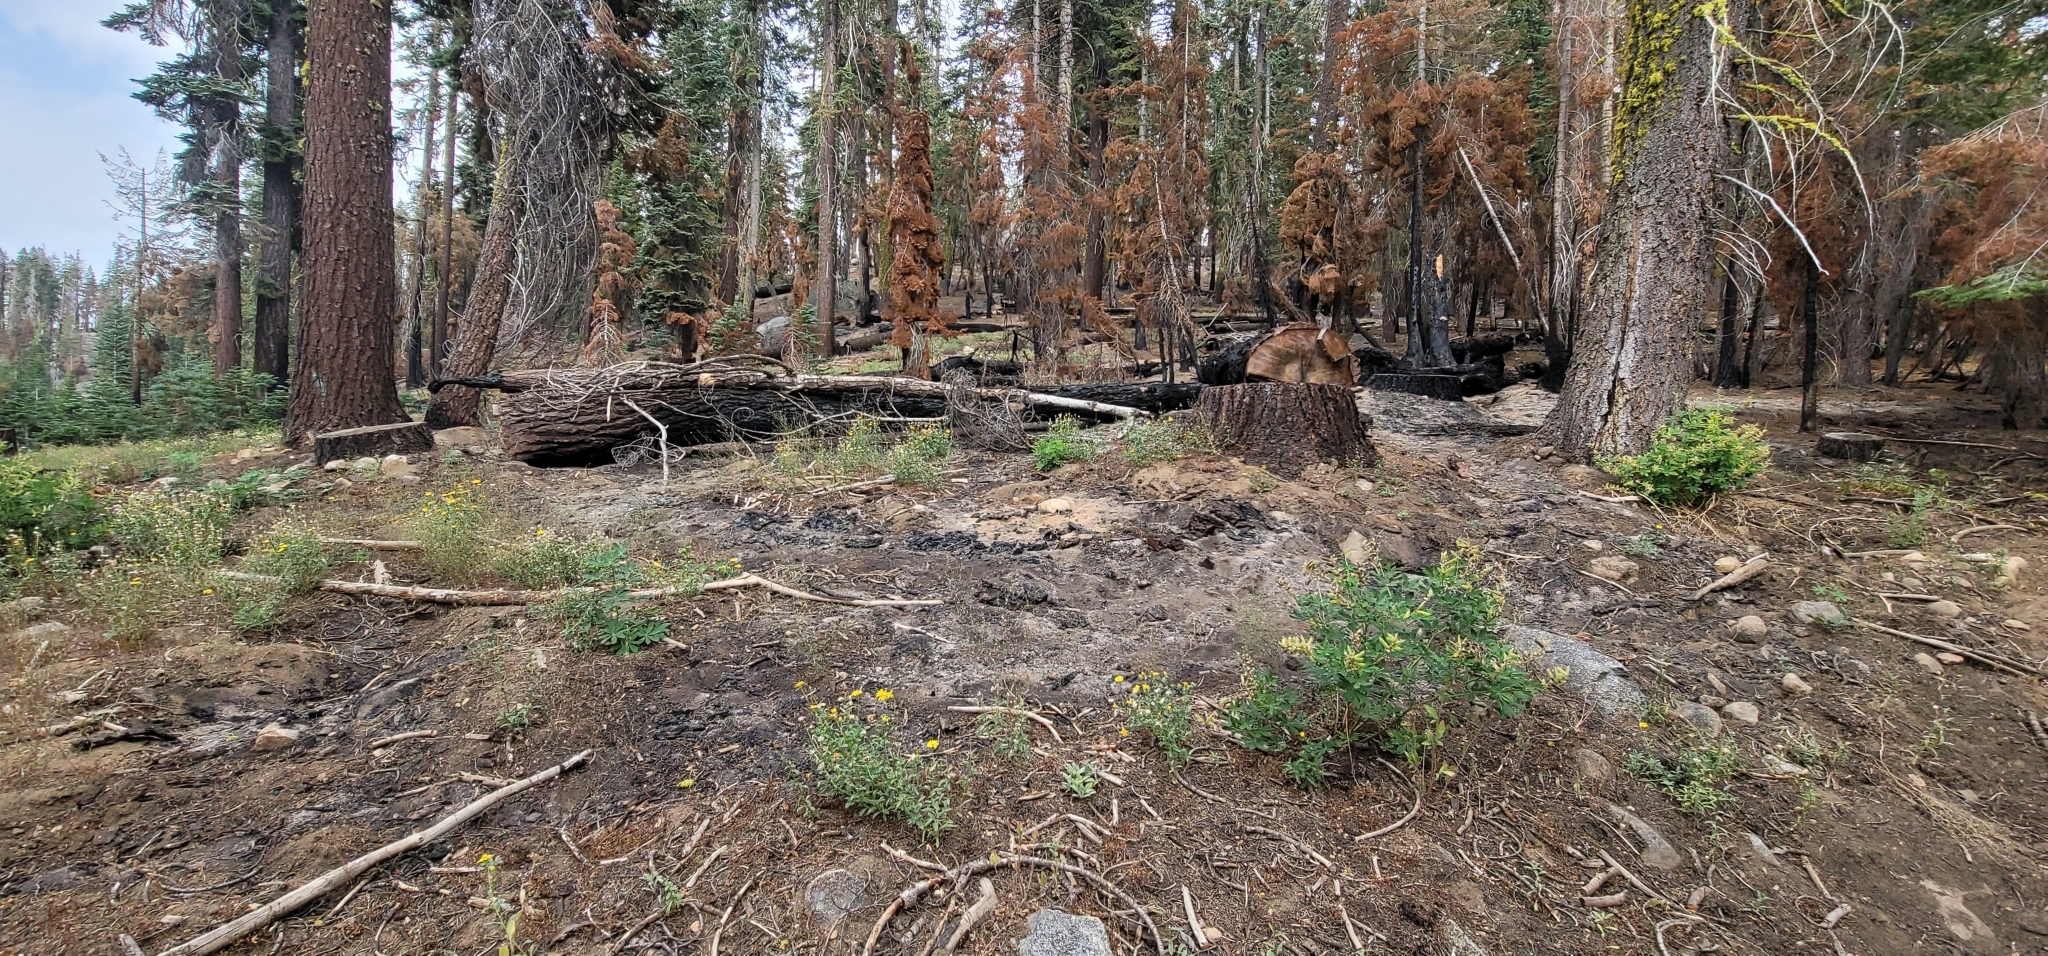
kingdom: Plantae
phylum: Tracheophyta
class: Magnoliopsida
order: Asterales
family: Asteraceae
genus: Hulsea
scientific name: Hulsea brevifolia
